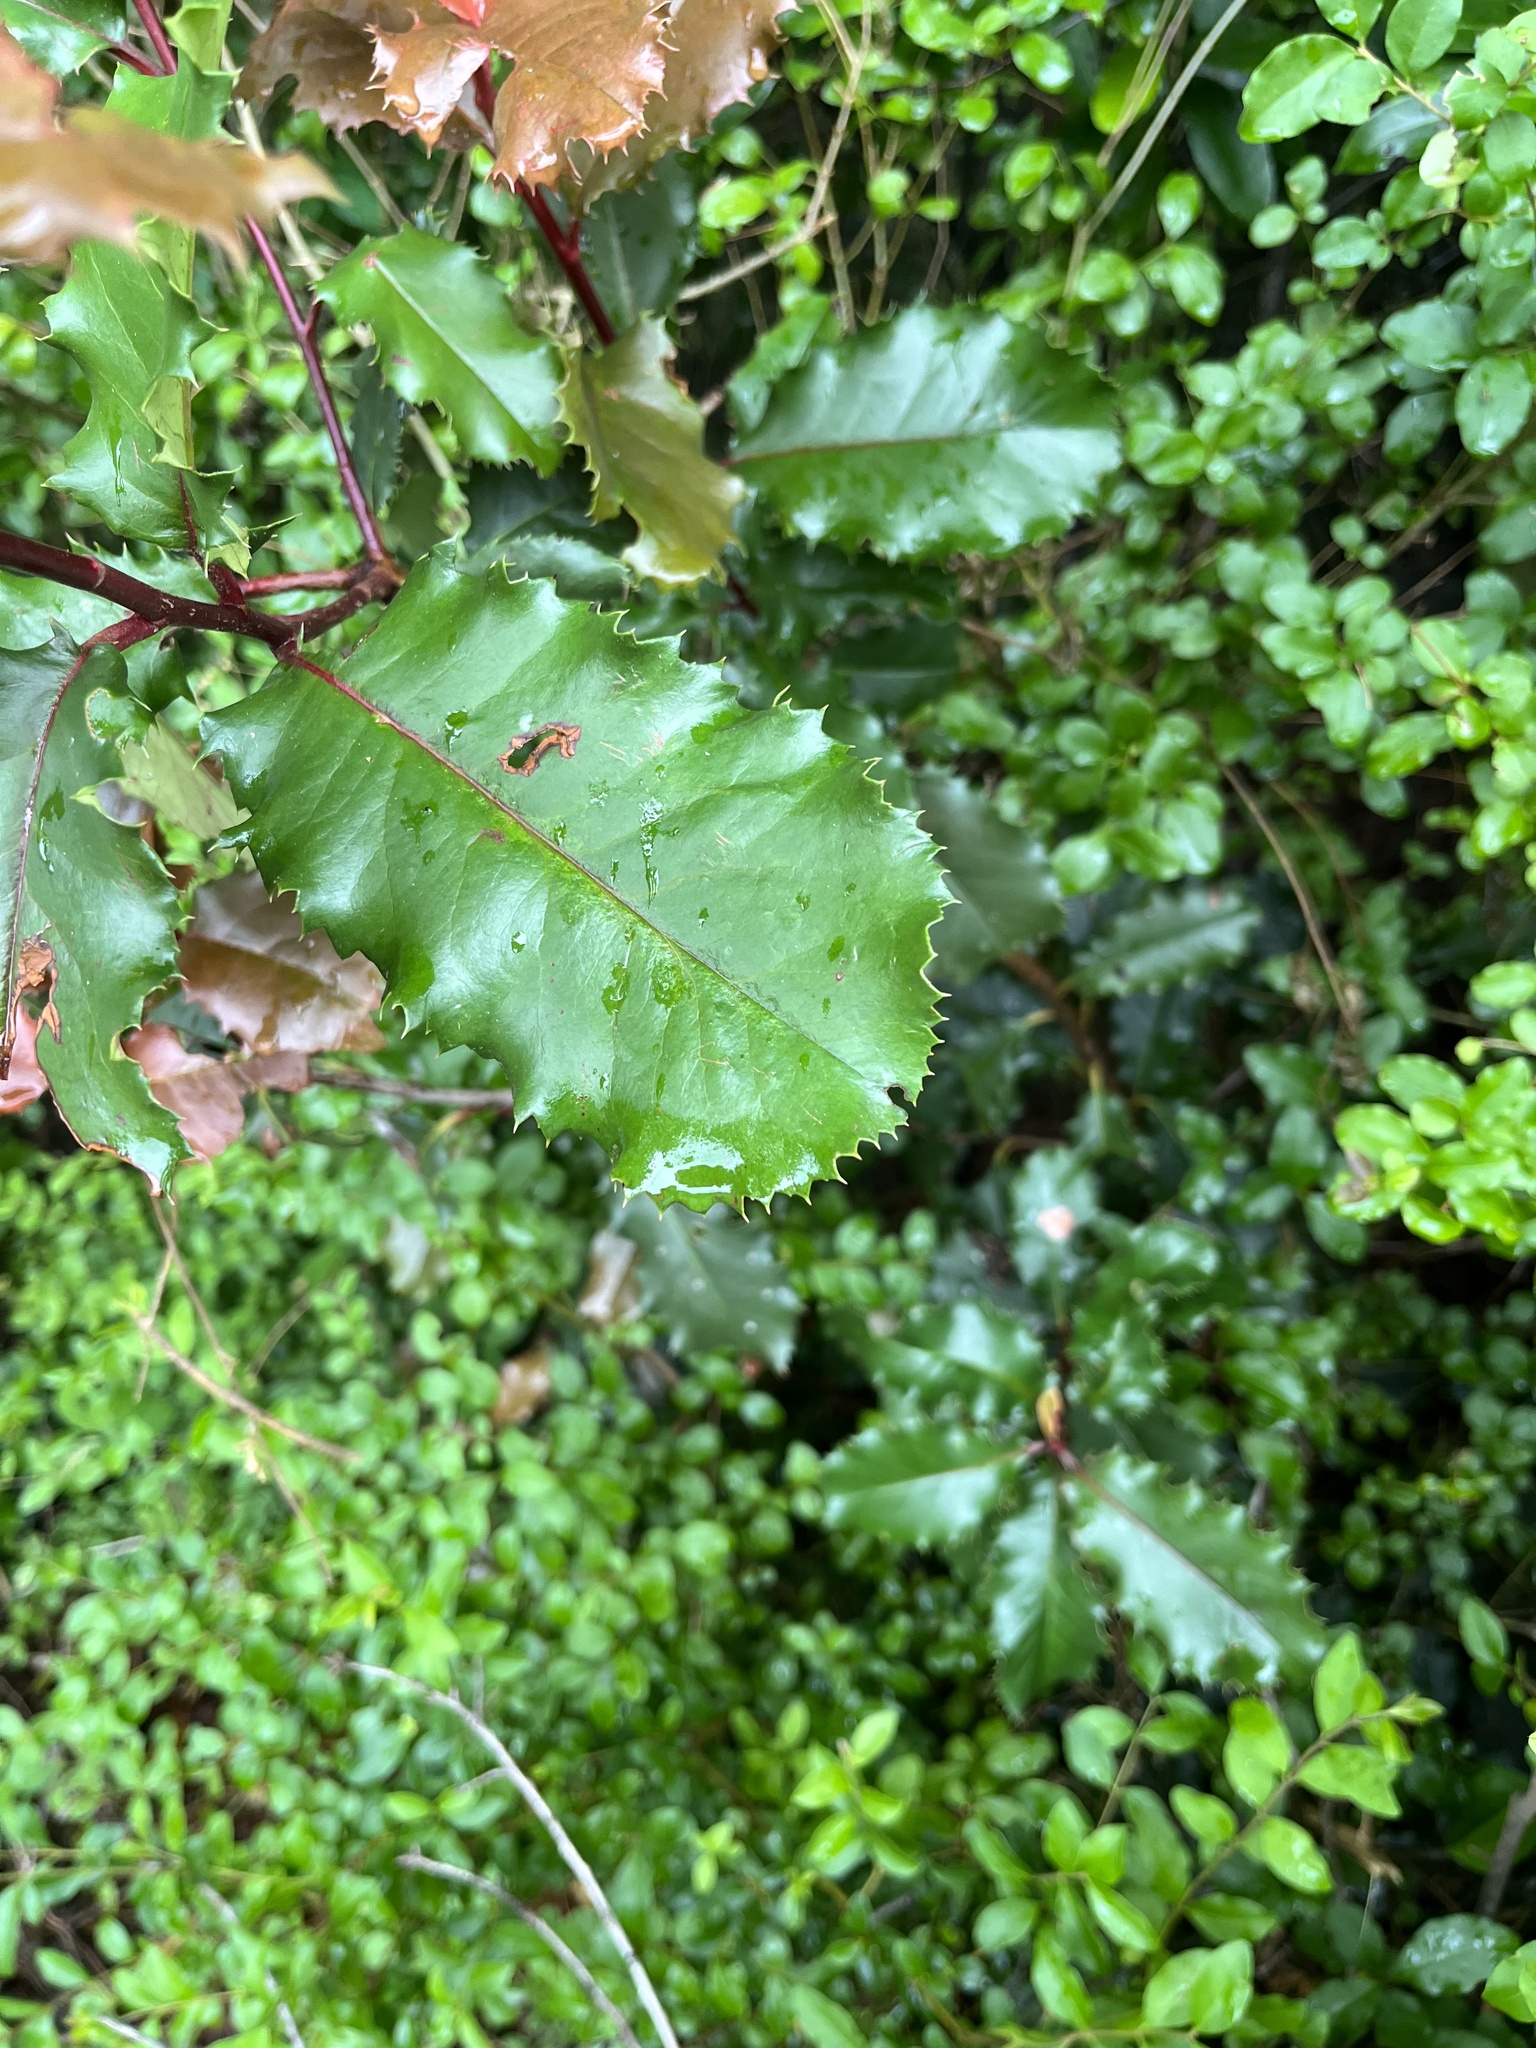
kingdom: Plantae
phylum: Tracheophyta
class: Magnoliopsida
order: Rosales
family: Rosaceae
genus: Photinia
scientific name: Photinia serratifolia
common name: Taiwanese photinia
